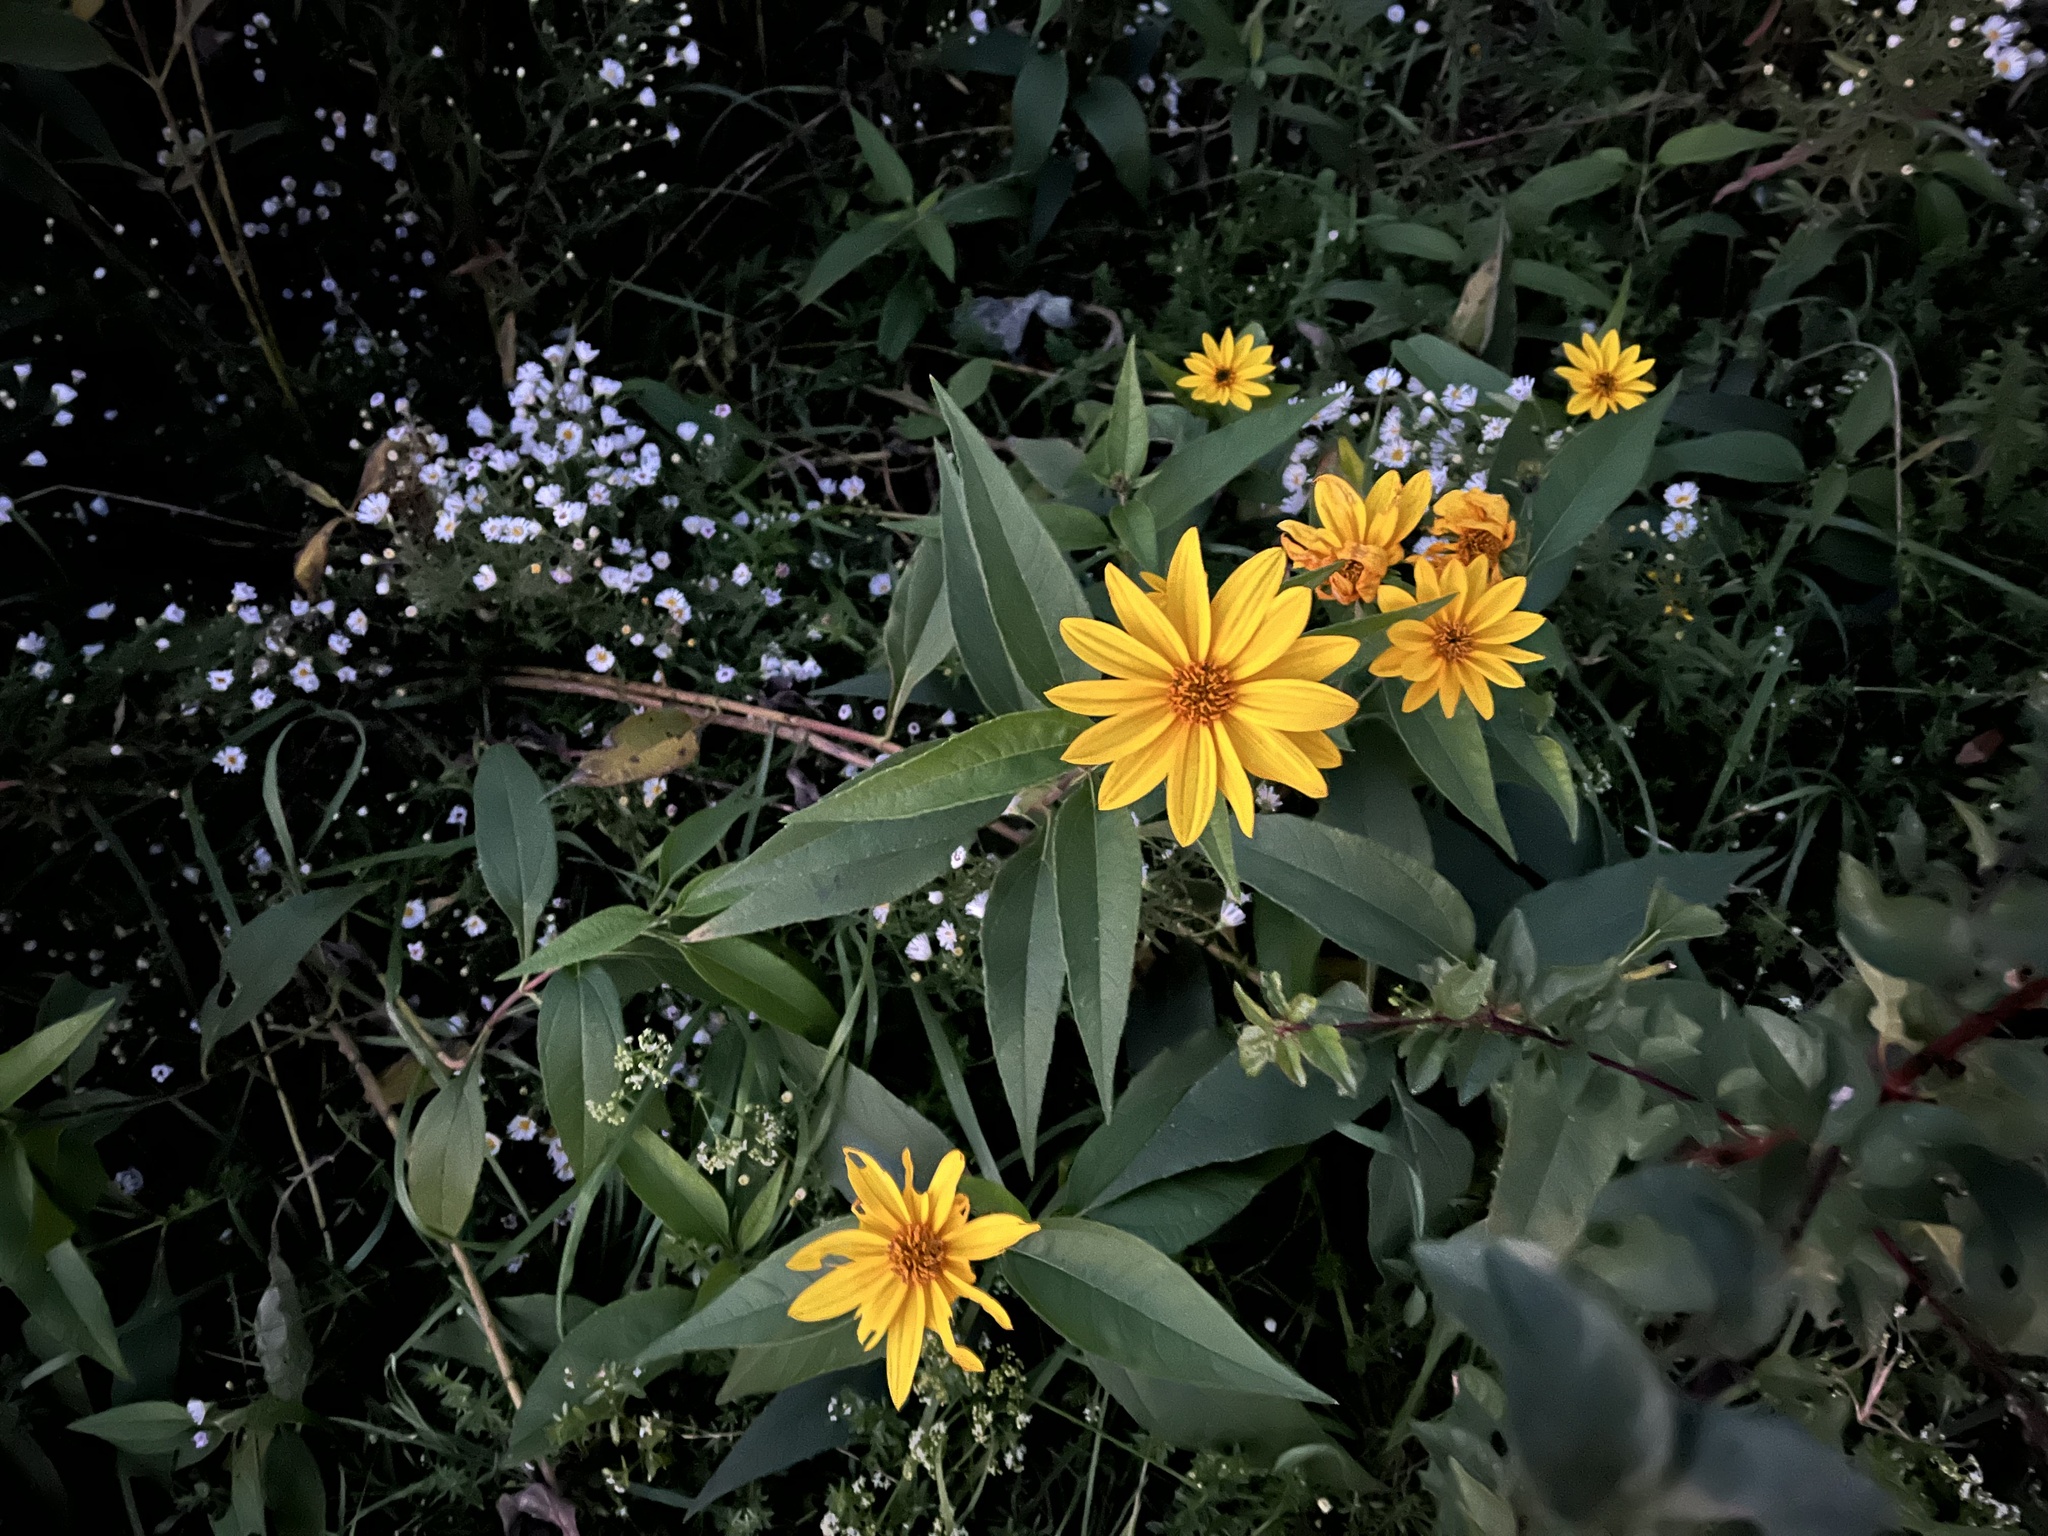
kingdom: Plantae
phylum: Tracheophyta
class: Magnoliopsida
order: Asterales
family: Asteraceae
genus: Helianthus
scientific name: Helianthus tuberosus
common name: Jerusalem artichoke
